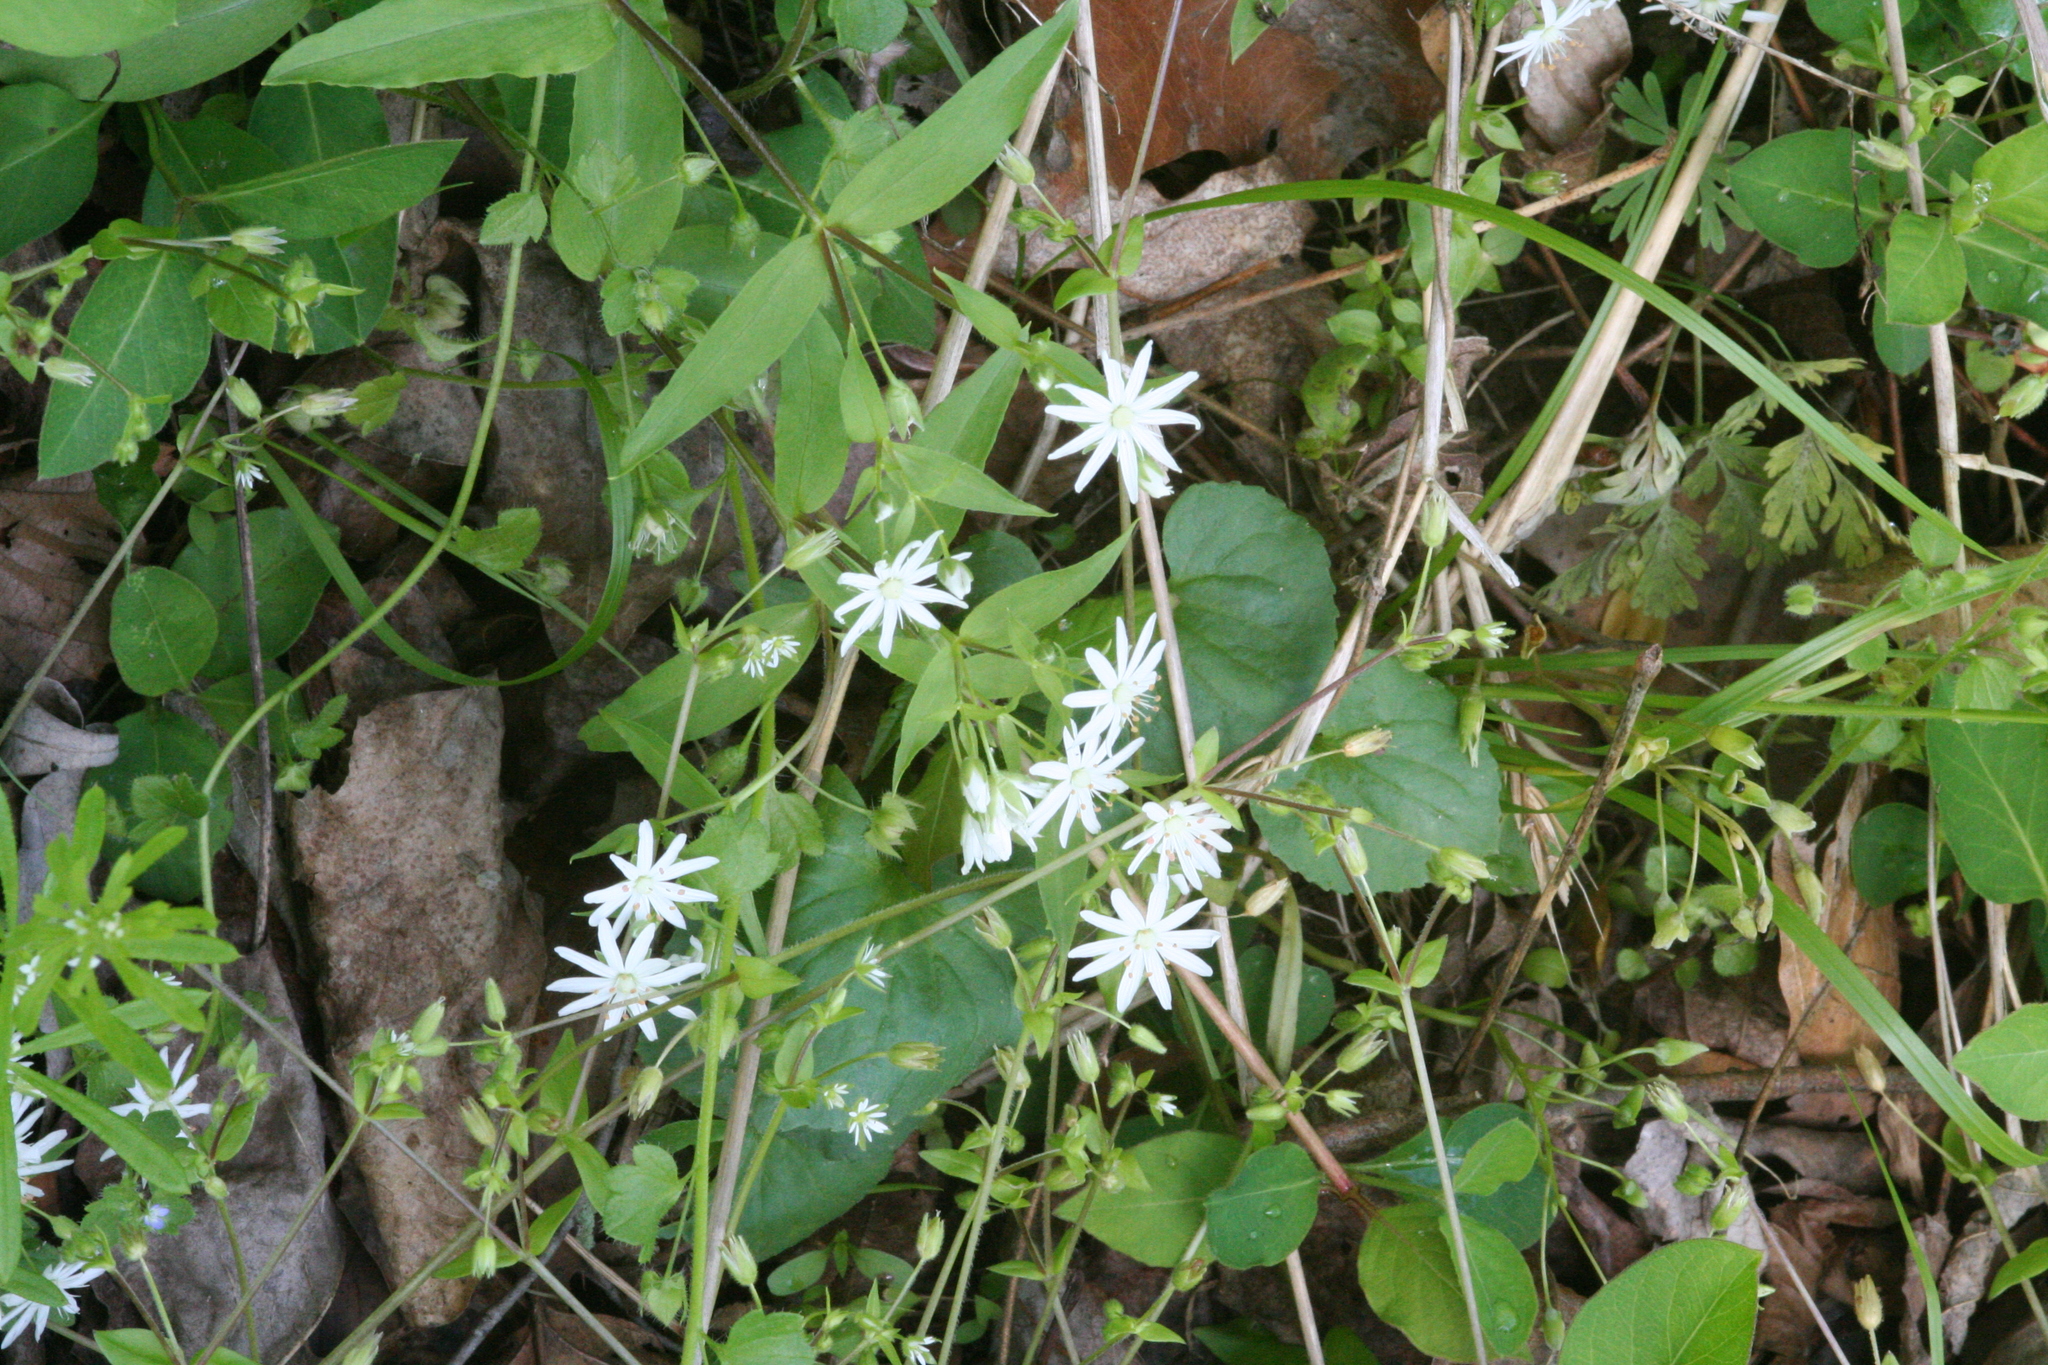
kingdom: Plantae
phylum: Tracheophyta
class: Magnoliopsida
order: Caryophyllales
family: Caryophyllaceae
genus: Stellaria
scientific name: Stellaria pubera
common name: Star chickweed
